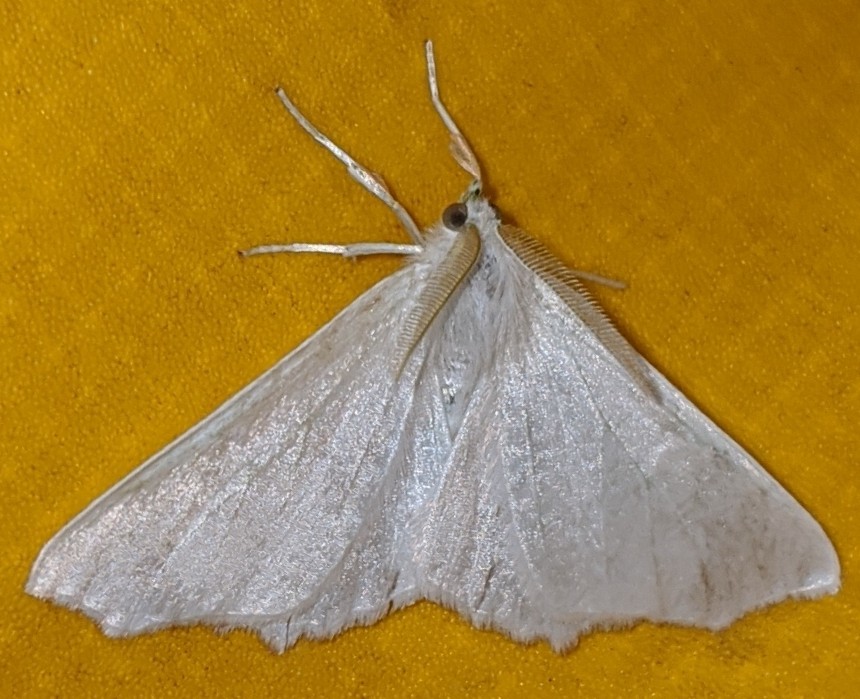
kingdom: Animalia
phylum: Arthropoda
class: Insecta
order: Lepidoptera
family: Geometridae
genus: Ennomos
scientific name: Ennomos subsignaria
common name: Elm spanworm
